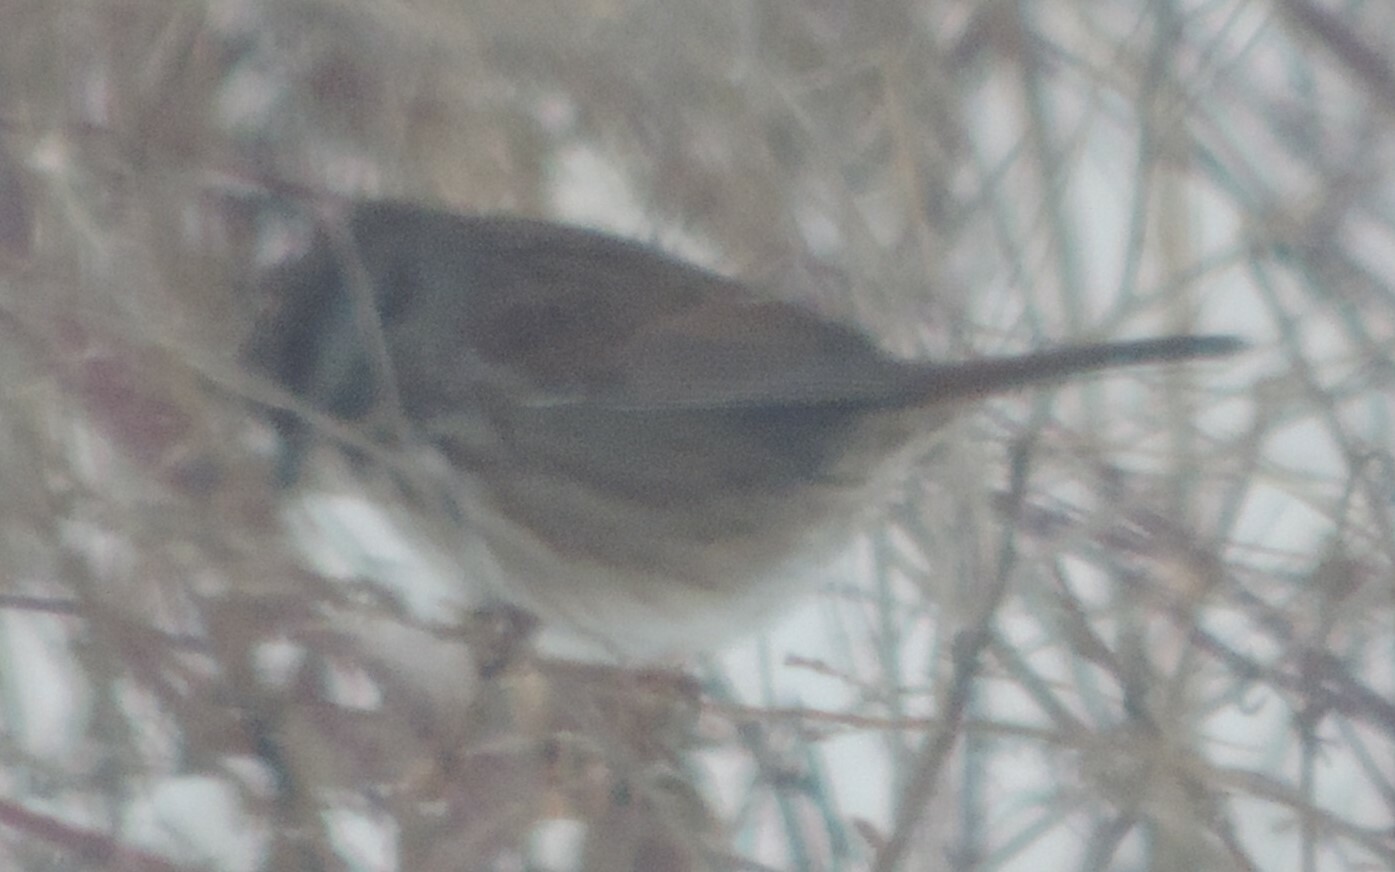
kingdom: Animalia
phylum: Chordata
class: Aves
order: Passeriformes
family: Passerellidae
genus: Melospiza
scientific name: Melospiza melodia
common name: Song sparrow
